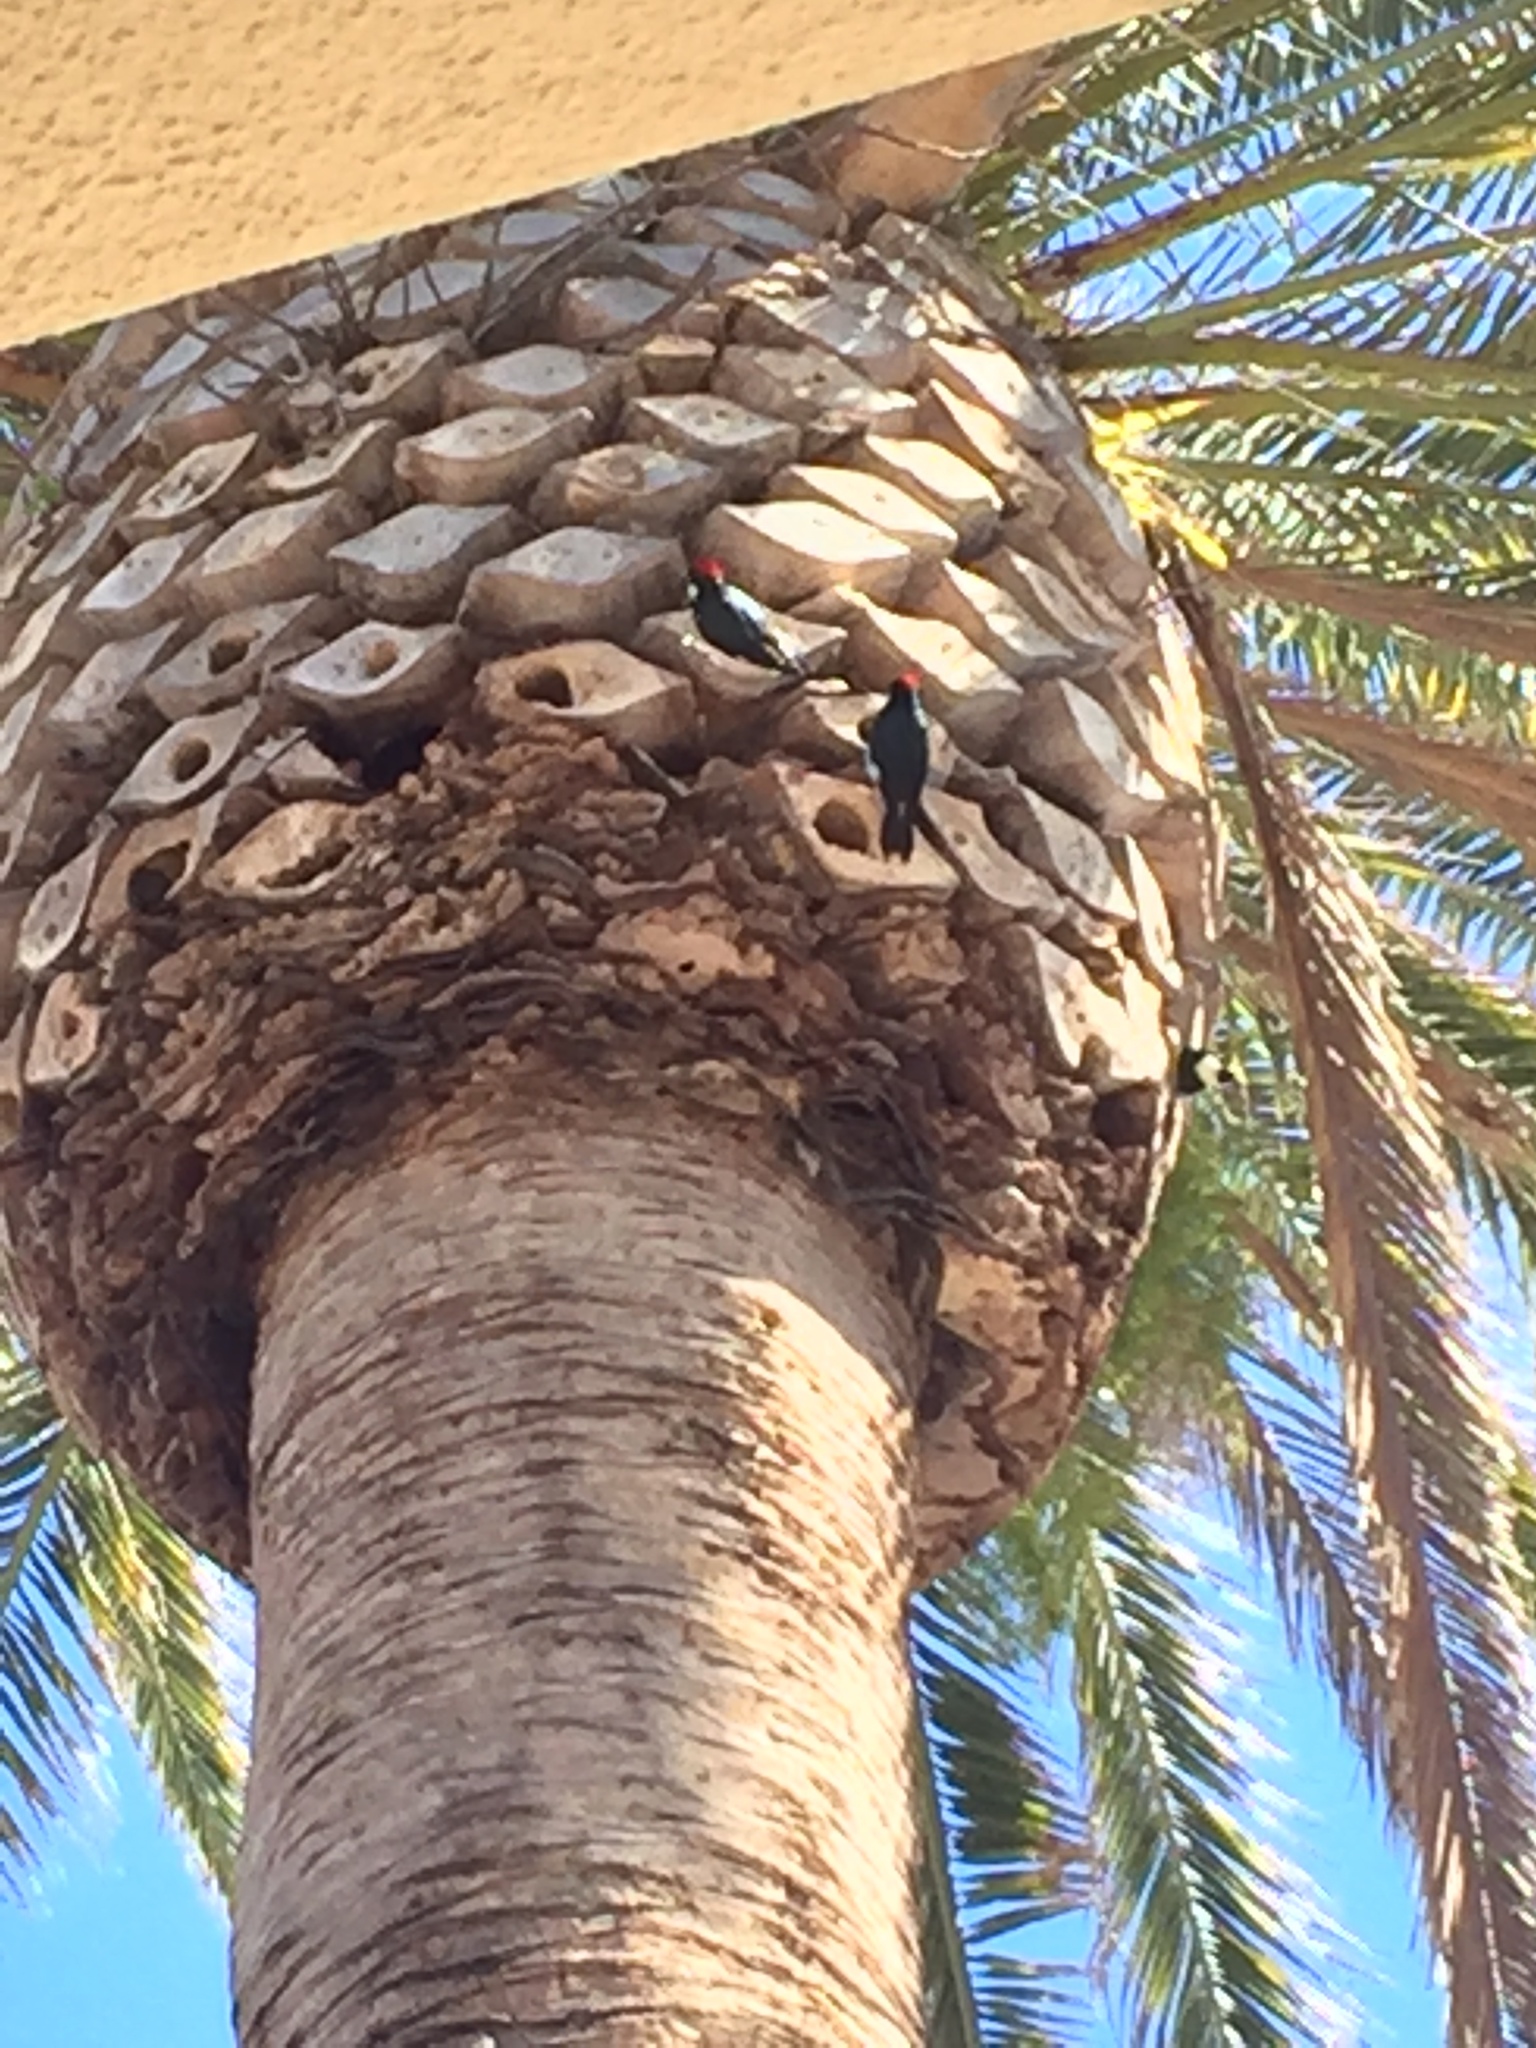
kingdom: Animalia
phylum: Chordata
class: Aves
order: Piciformes
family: Picidae
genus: Melanerpes
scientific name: Melanerpes formicivorus
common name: Acorn woodpecker
